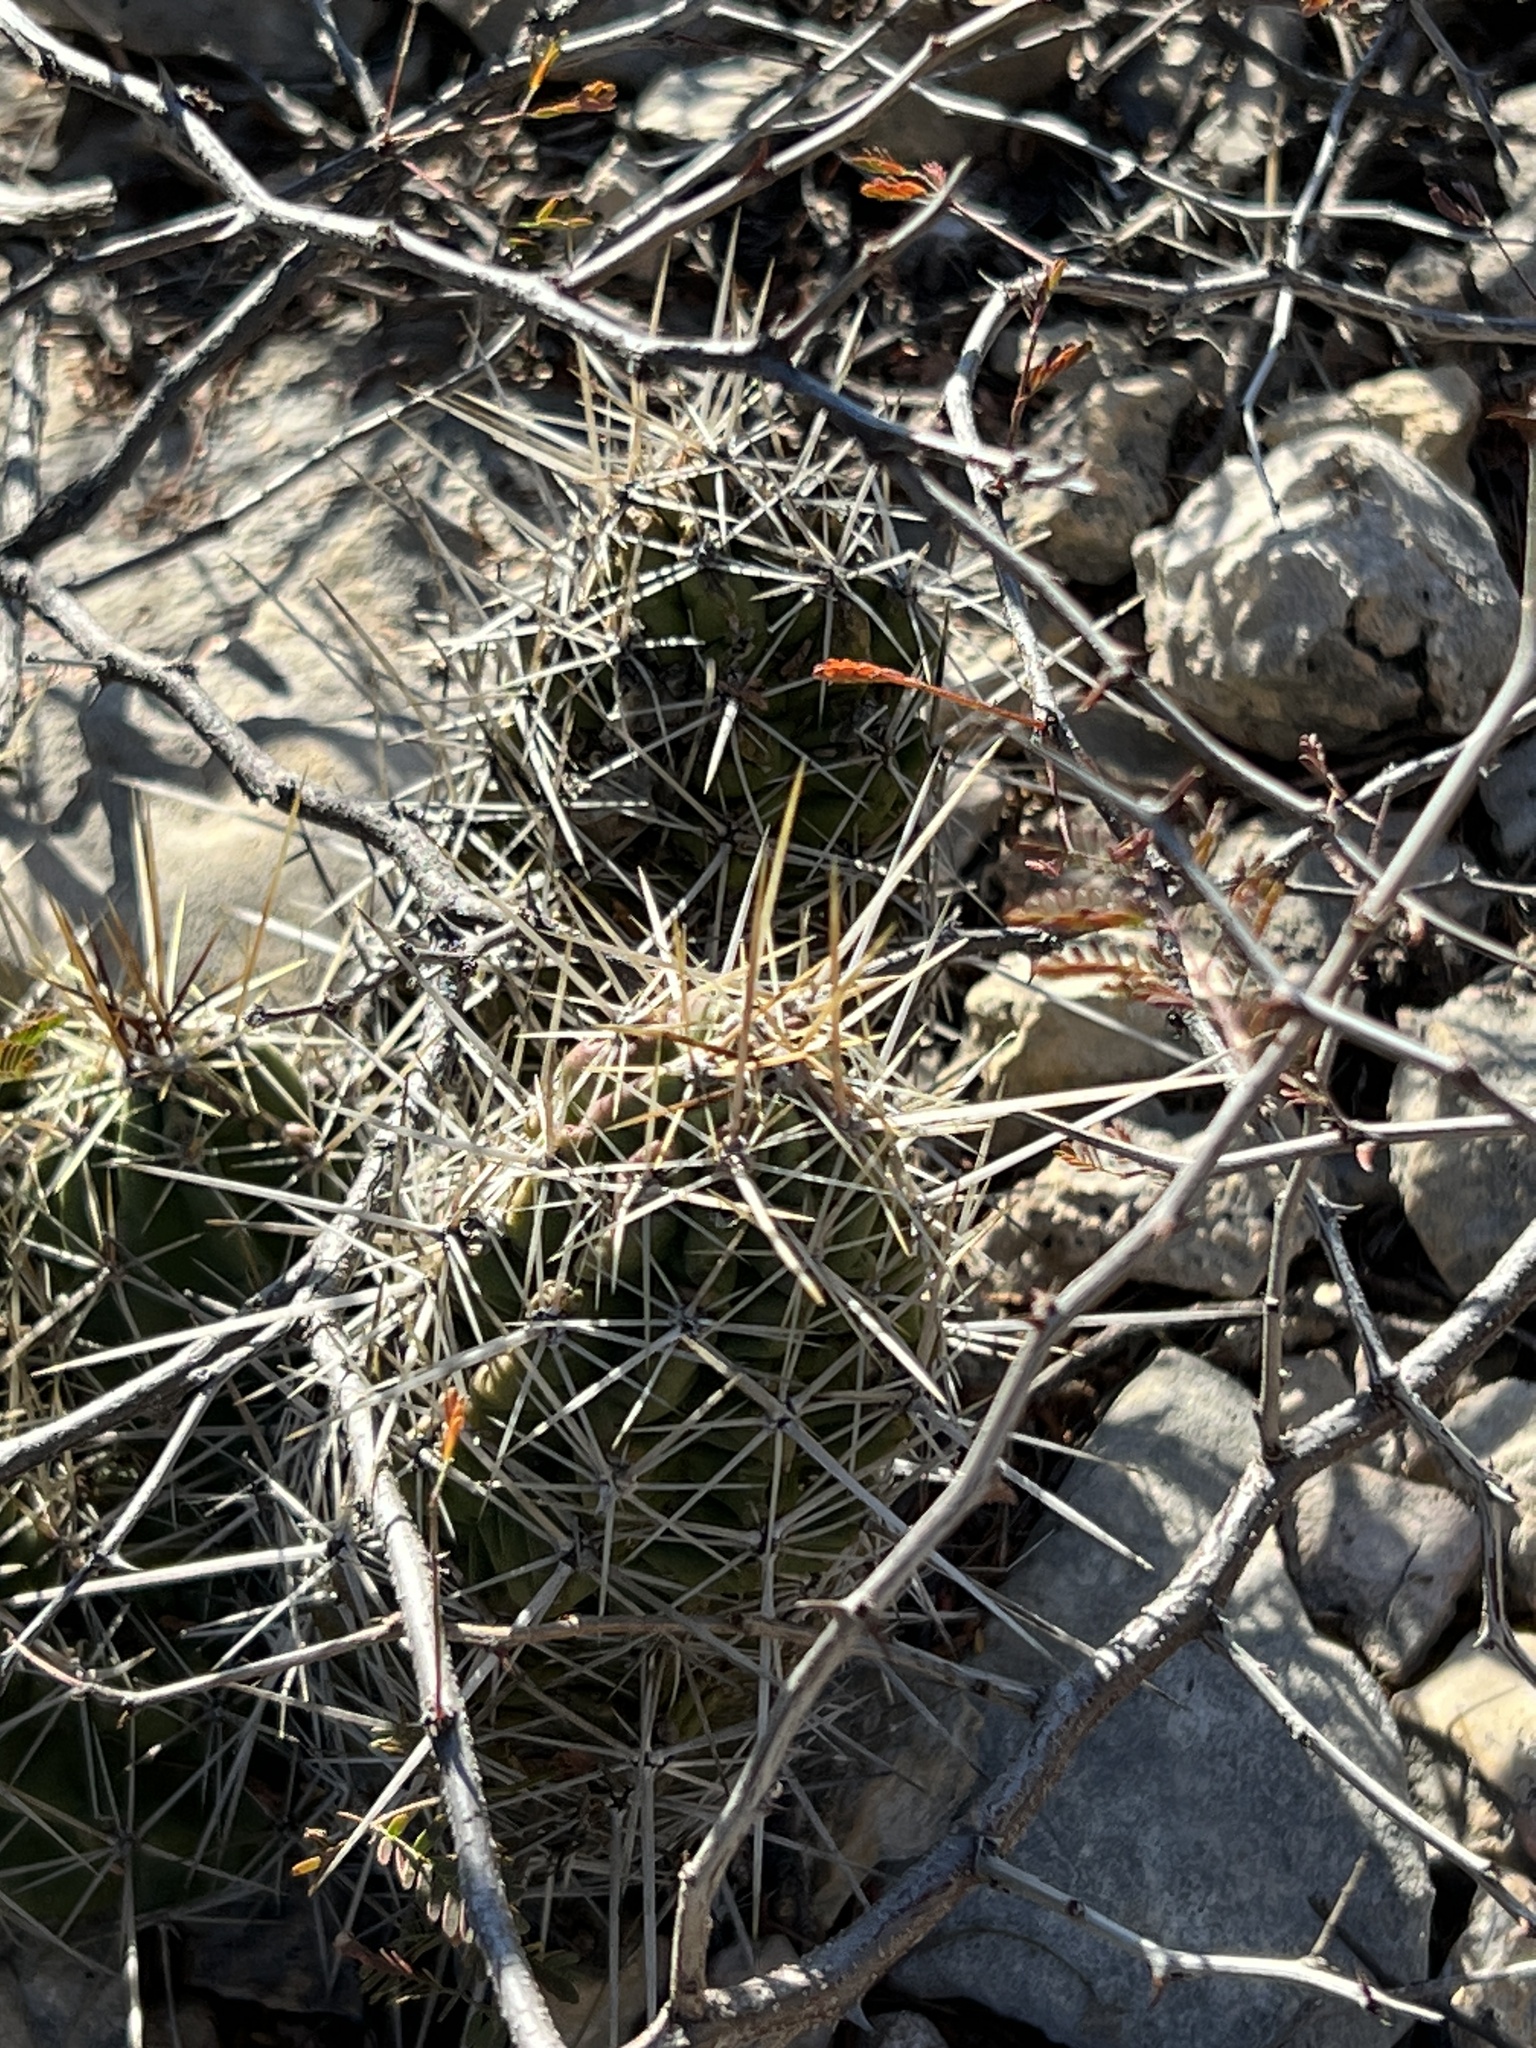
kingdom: Plantae
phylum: Tracheophyta
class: Magnoliopsida
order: Caryophyllales
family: Cactaceae
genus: Echinocereus
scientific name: Echinocereus enneacanthus
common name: Pitaya
